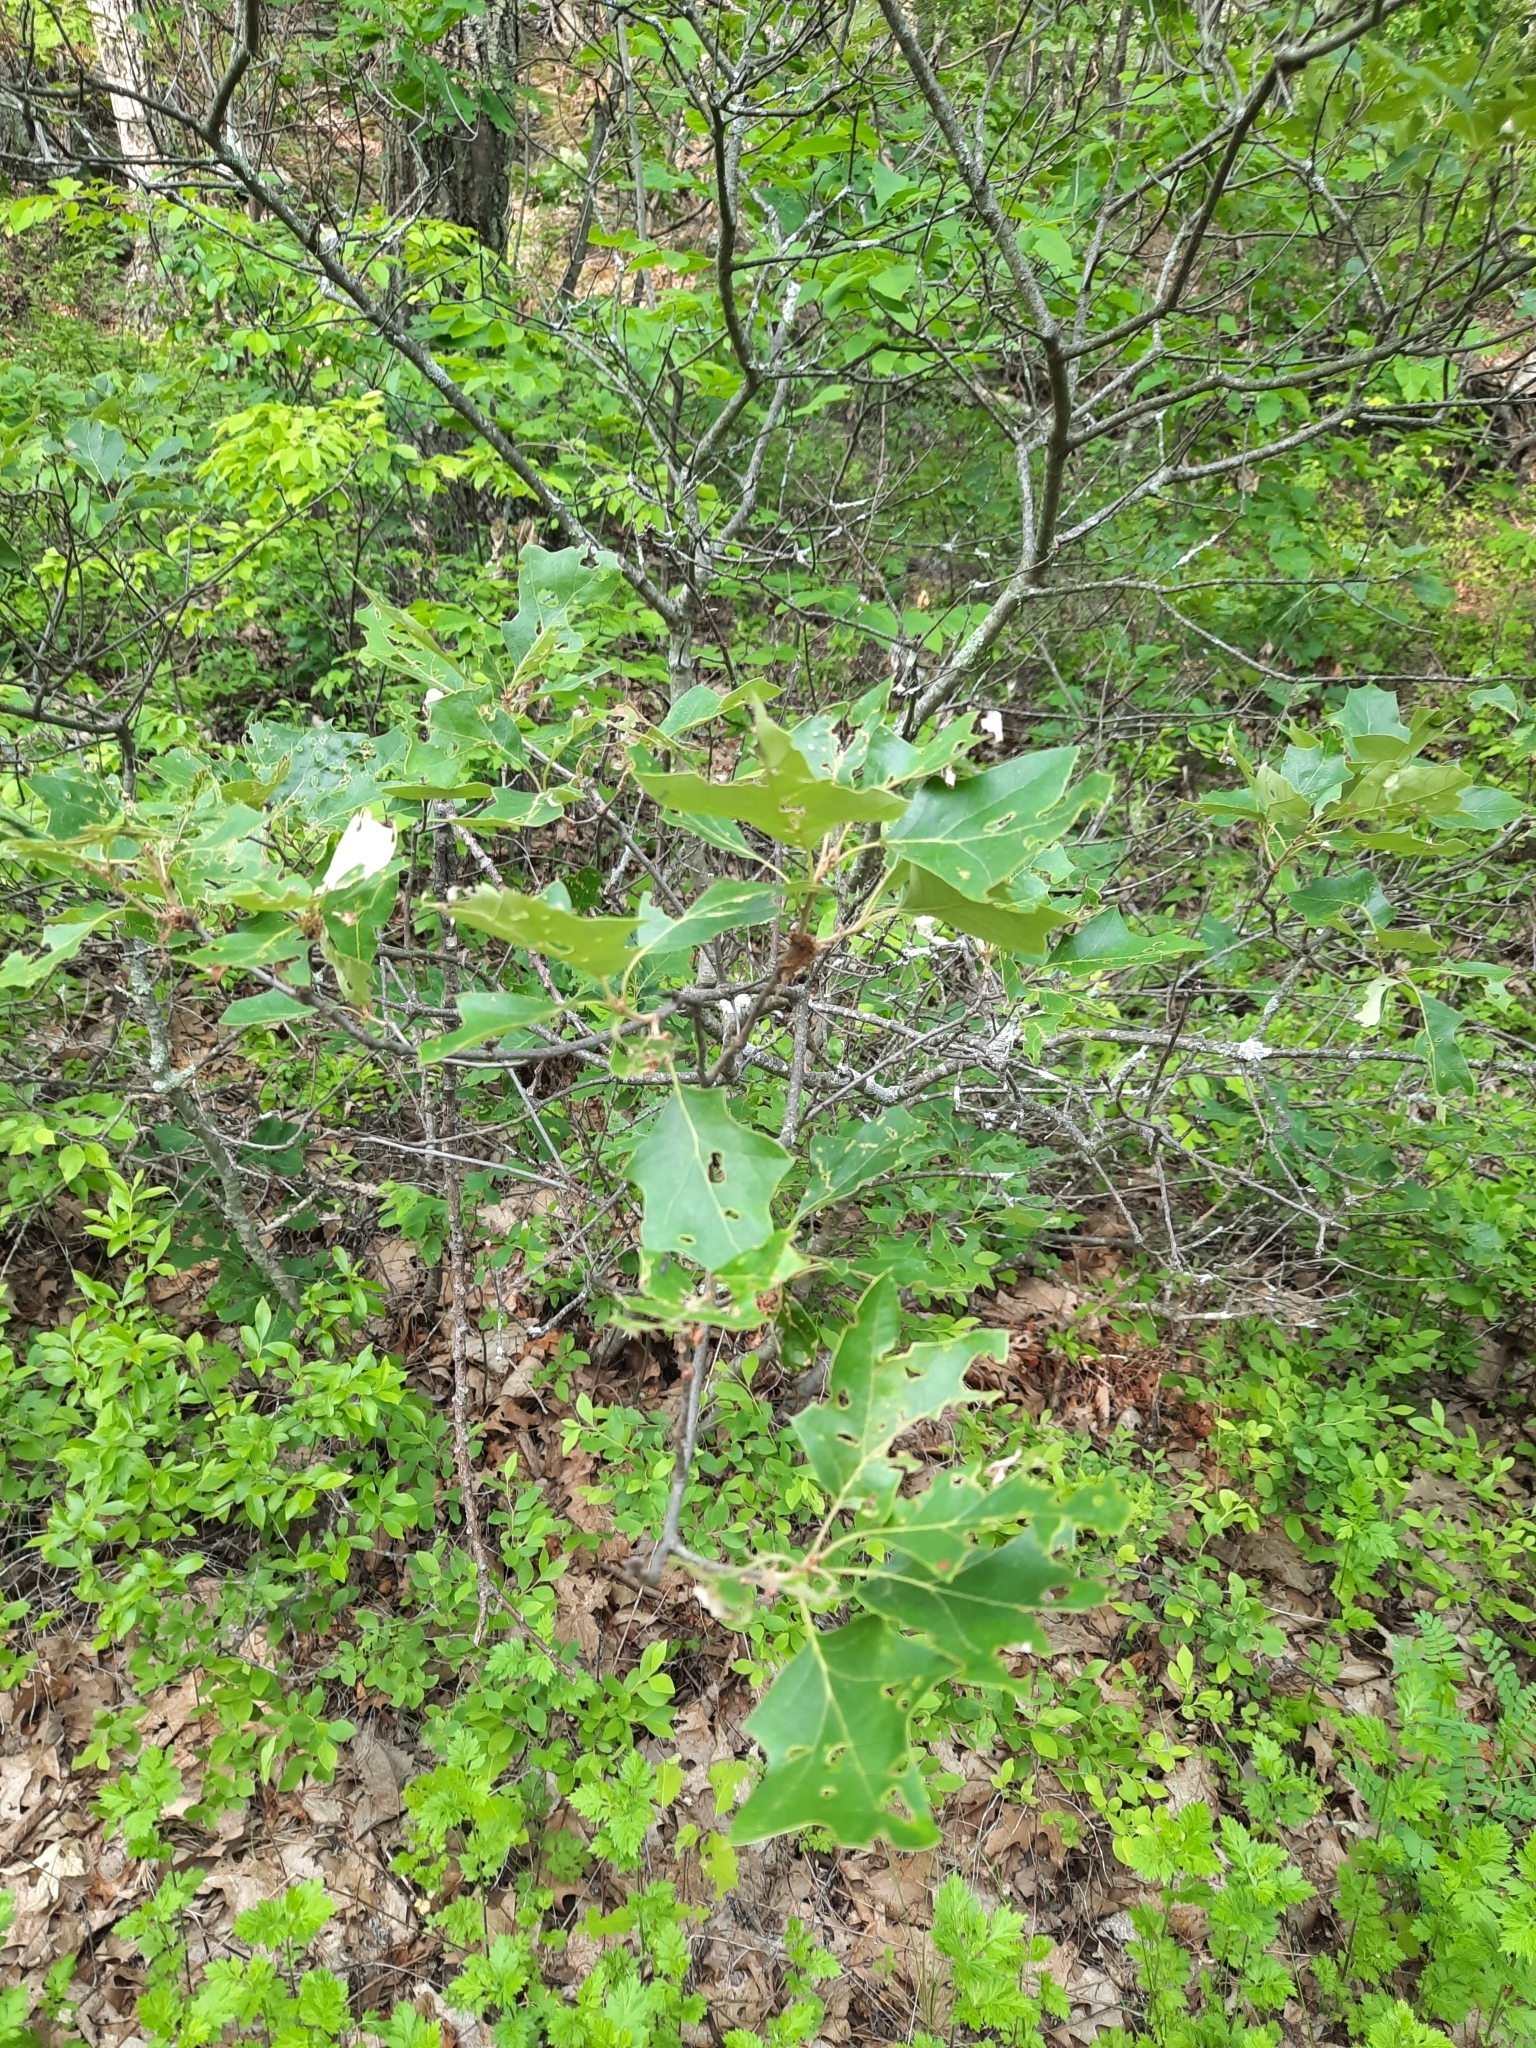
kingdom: Plantae
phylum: Tracheophyta
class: Magnoliopsida
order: Fagales
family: Fagaceae
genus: Quercus
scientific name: Quercus ilicifolia
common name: Bear oak
